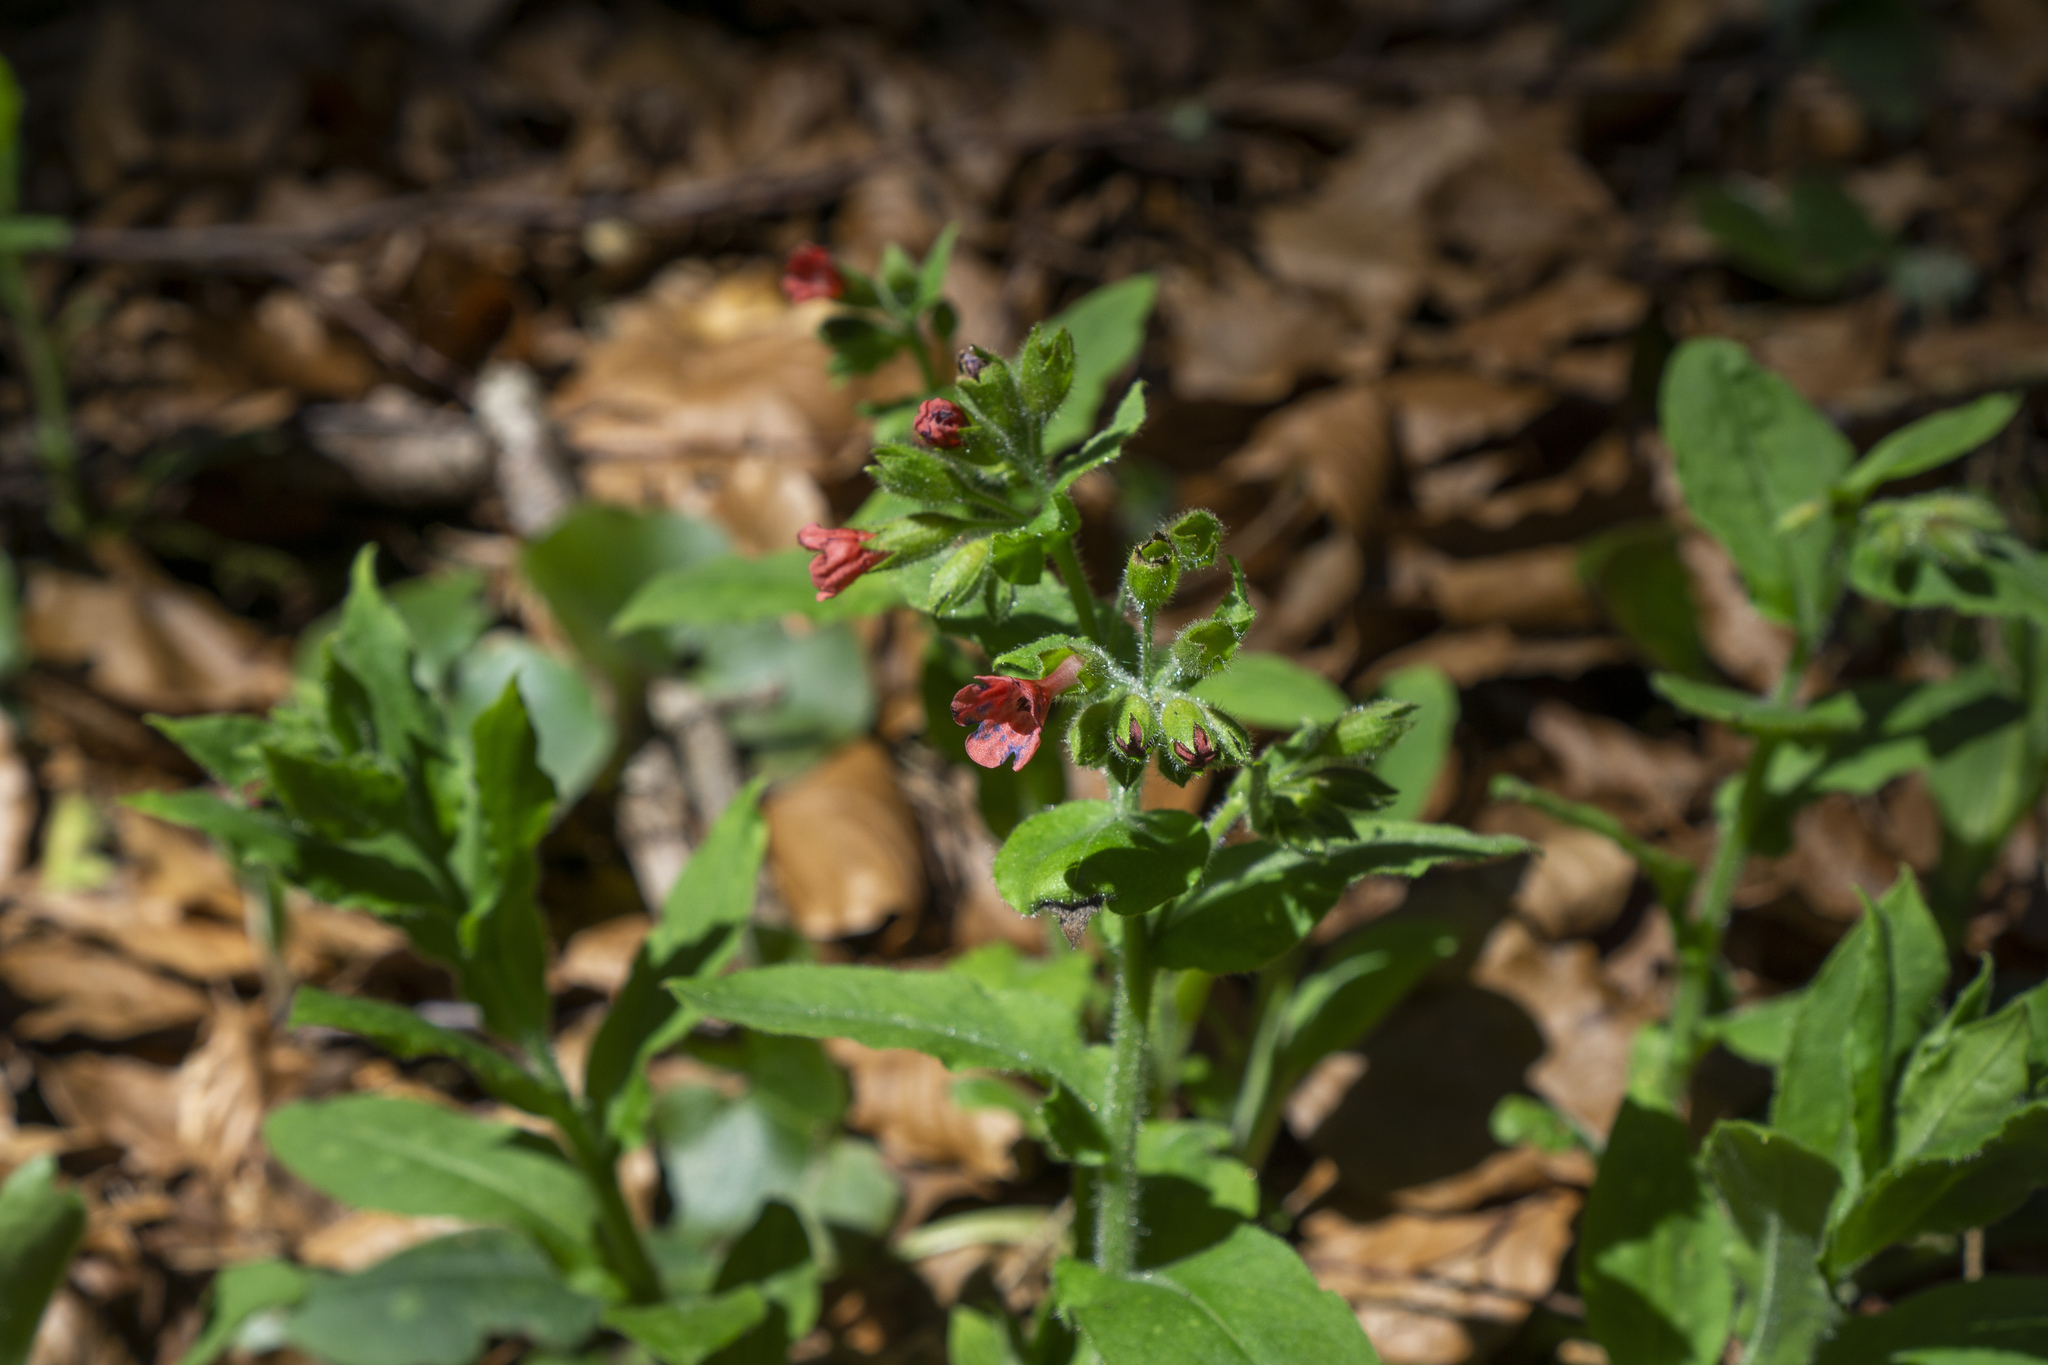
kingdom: Plantae
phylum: Tracheophyta
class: Magnoliopsida
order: Boraginales
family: Boraginaceae
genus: Pulmonaria
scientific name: Pulmonaria rubra
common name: Red lungwort
